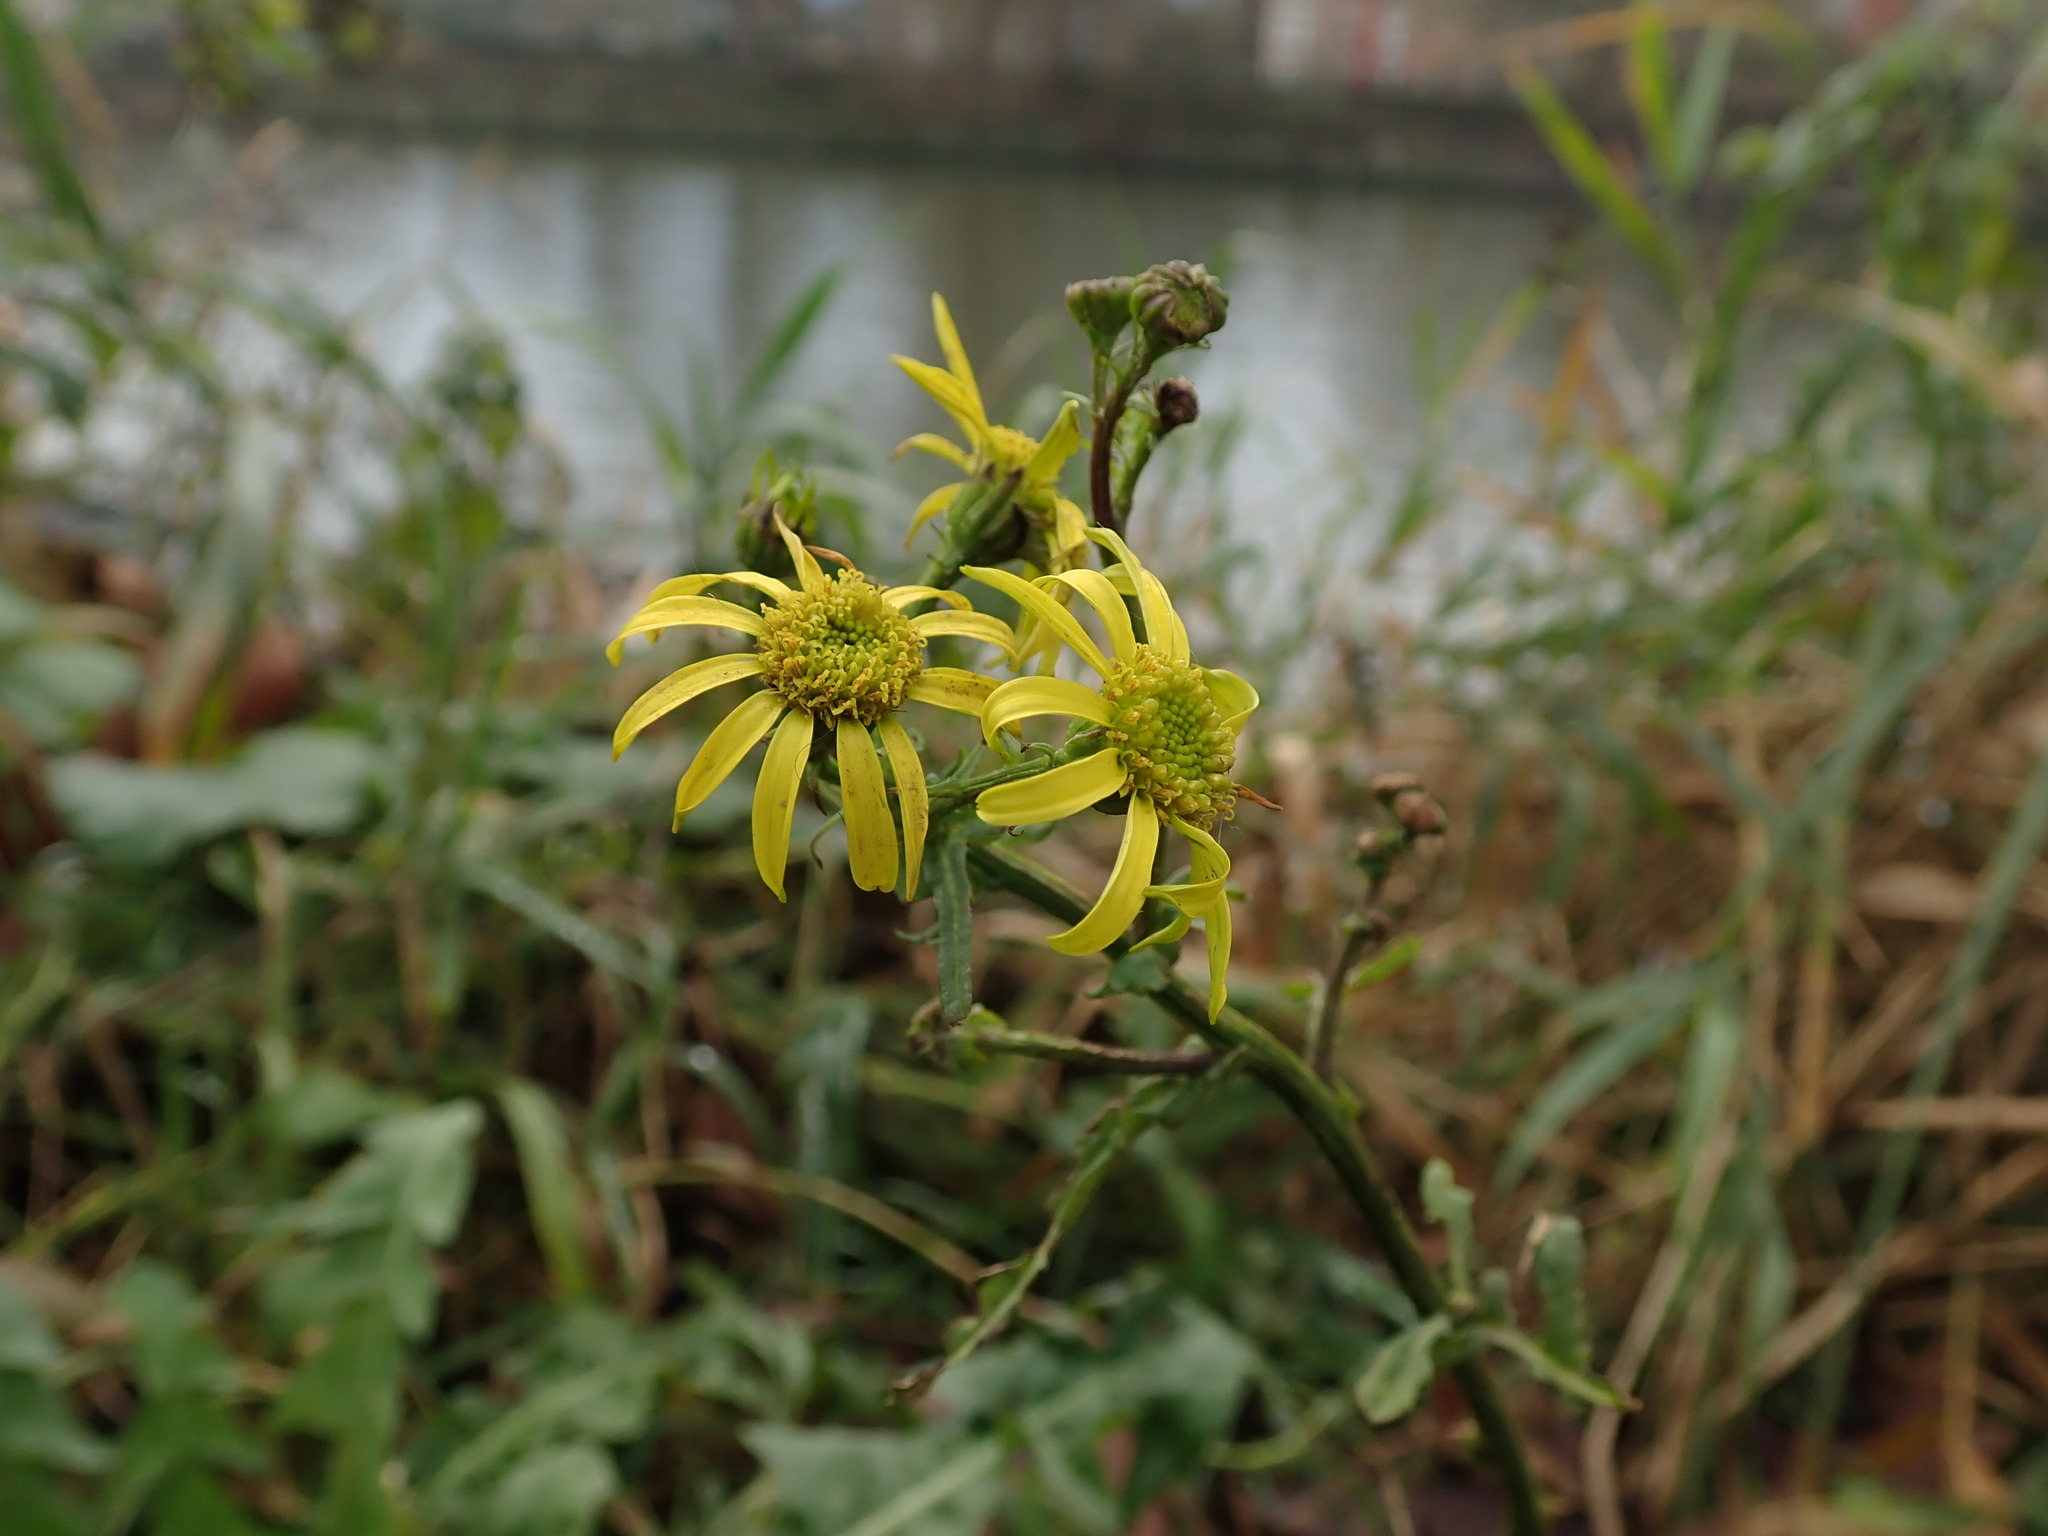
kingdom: Plantae
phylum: Tracheophyta
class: Magnoliopsida
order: Asterales
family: Asteraceae
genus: Jacobaea
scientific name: Jacobaea aquatica
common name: Water ragwort
